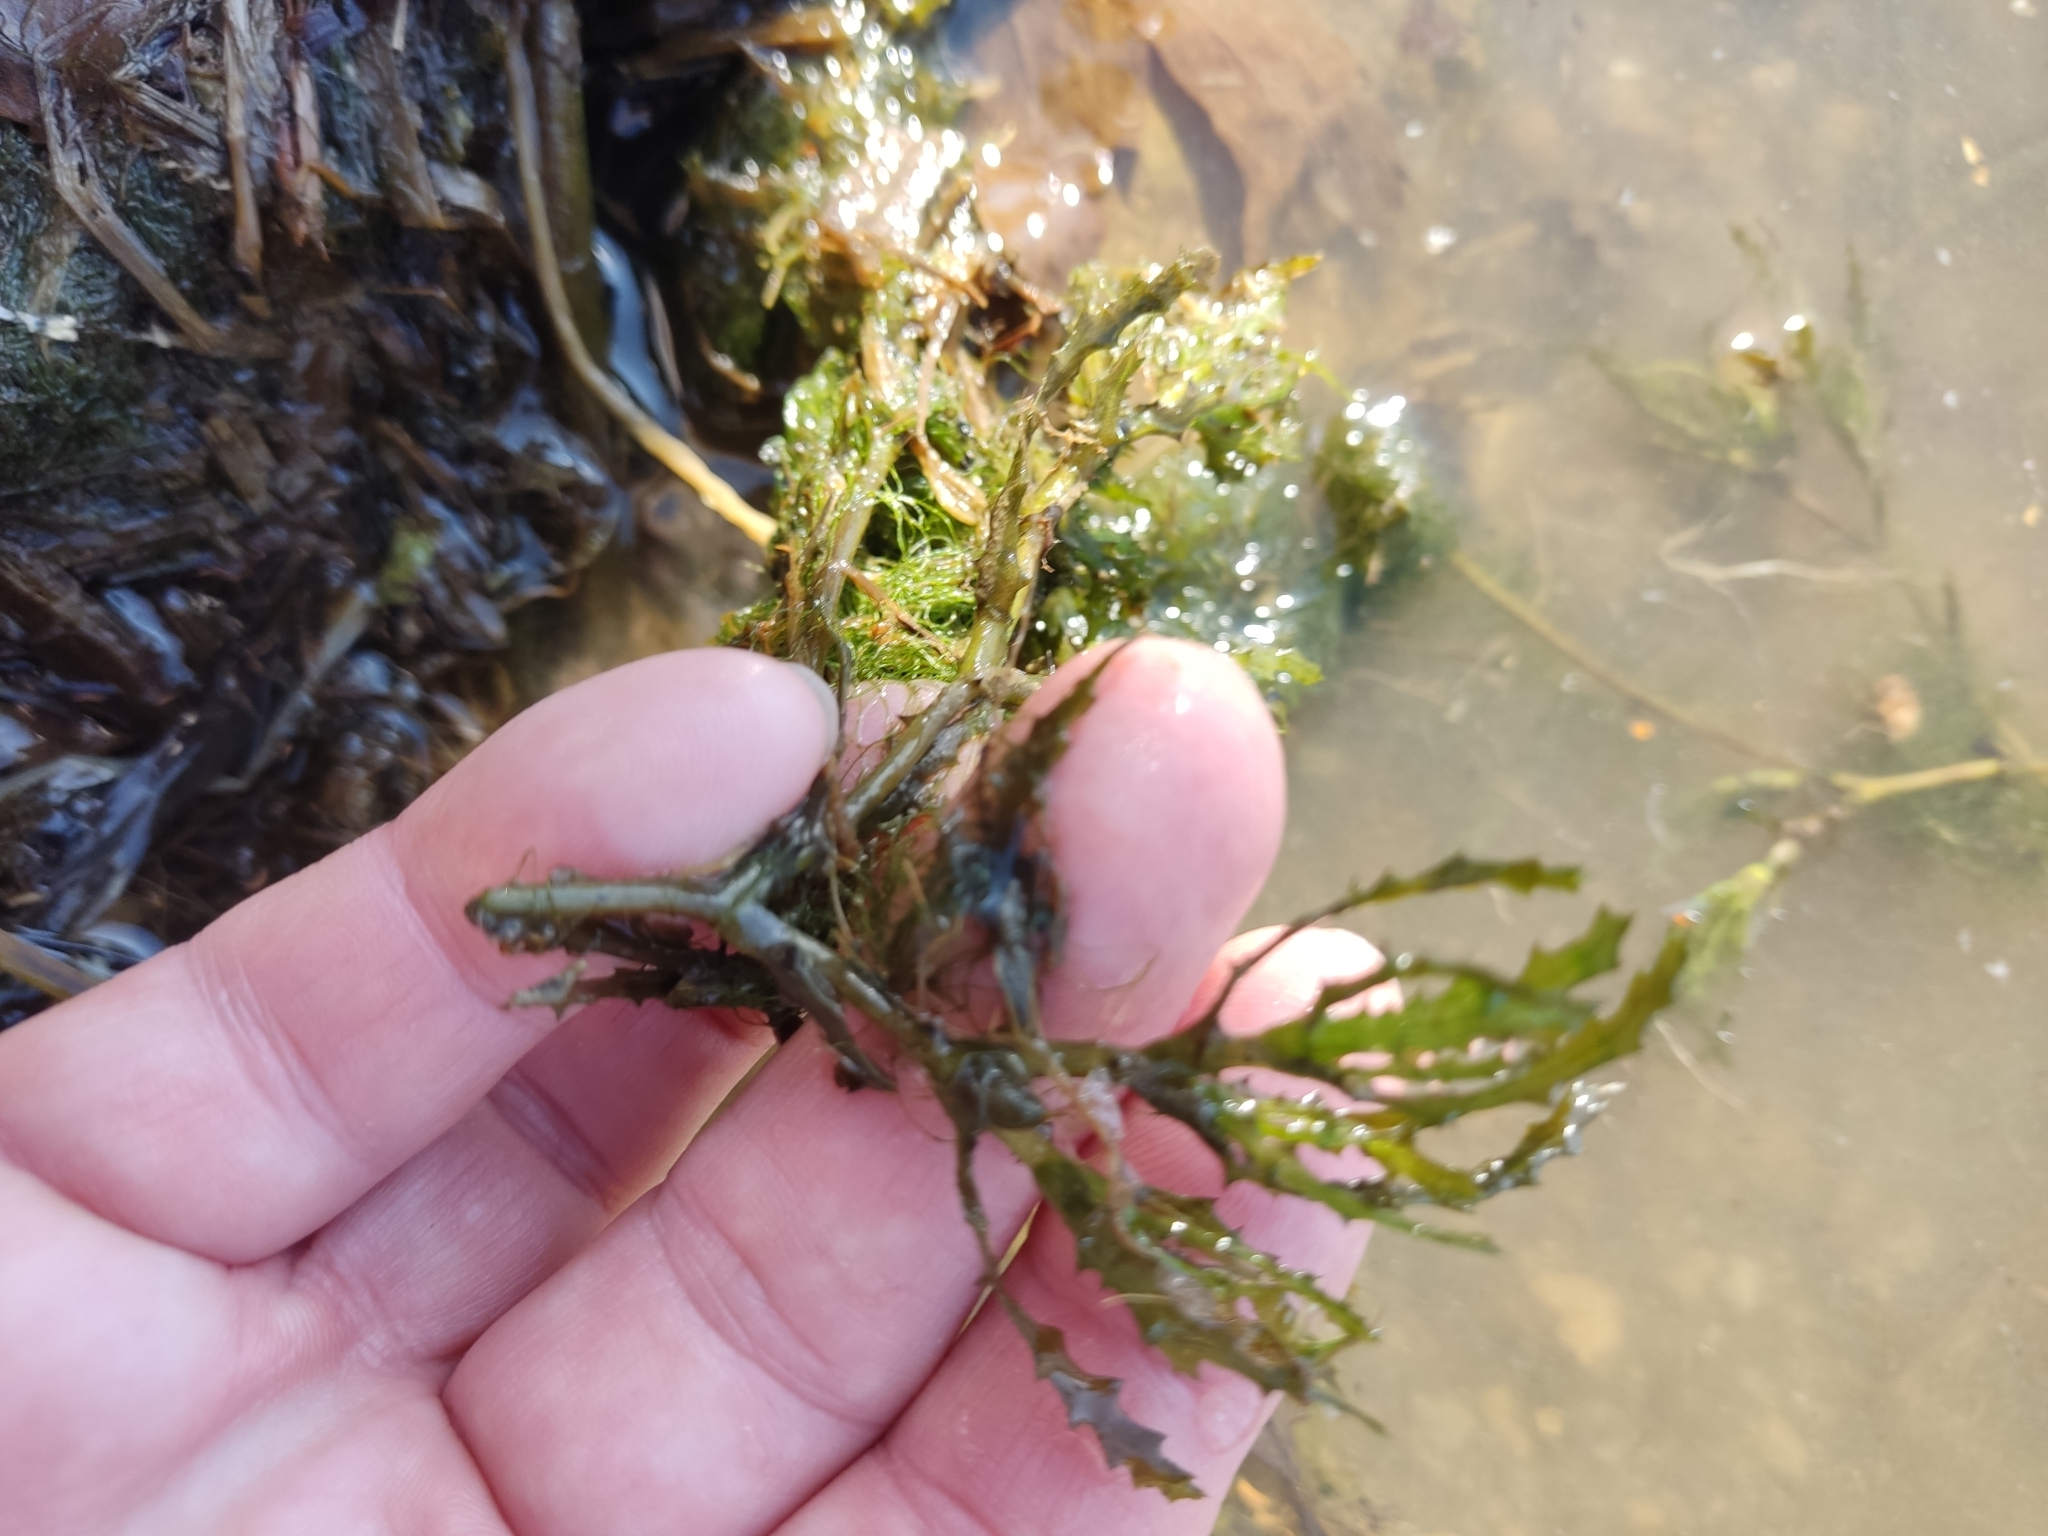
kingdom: Plantae
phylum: Tracheophyta
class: Liliopsida
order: Alismatales
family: Hydrocharitaceae
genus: Najas
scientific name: Najas major
